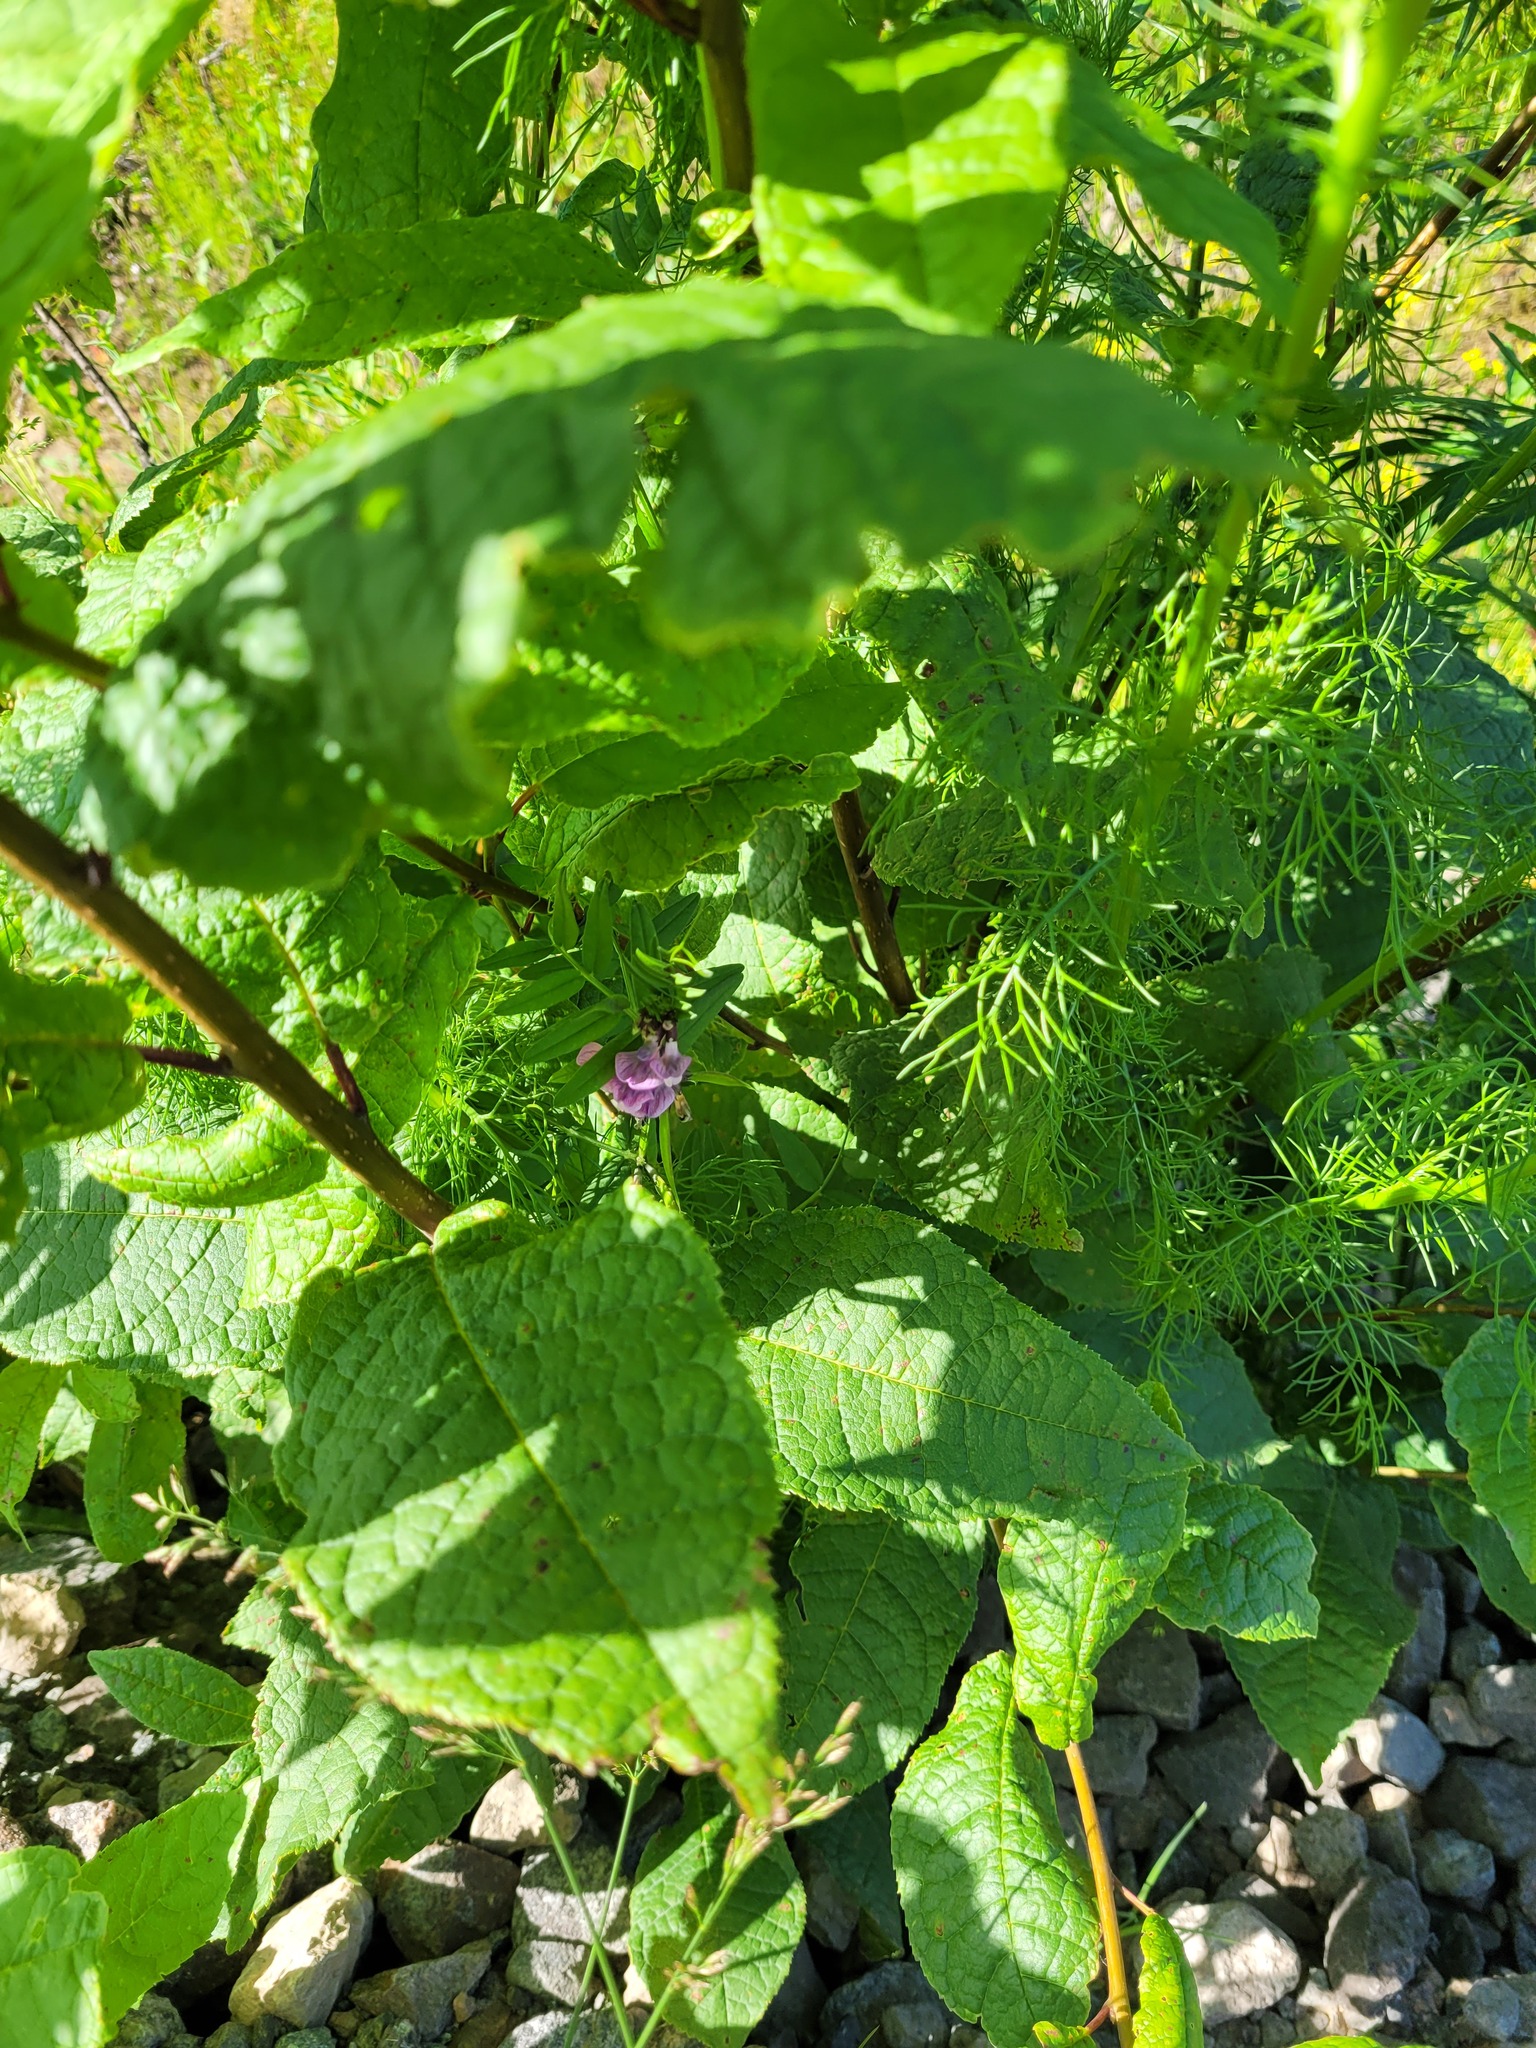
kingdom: Plantae
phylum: Tracheophyta
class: Magnoliopsida
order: Fabales
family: Fabaceae
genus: Vicia
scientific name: Vicia sepium
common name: Bush vetch
